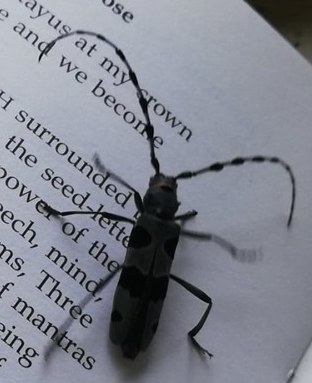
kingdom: Animalia
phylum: Arthropoda
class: Insecta
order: Coleoptera
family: Cerambycidae
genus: Rosalia
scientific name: Rosalia alpina
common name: Rosalia longicorn
